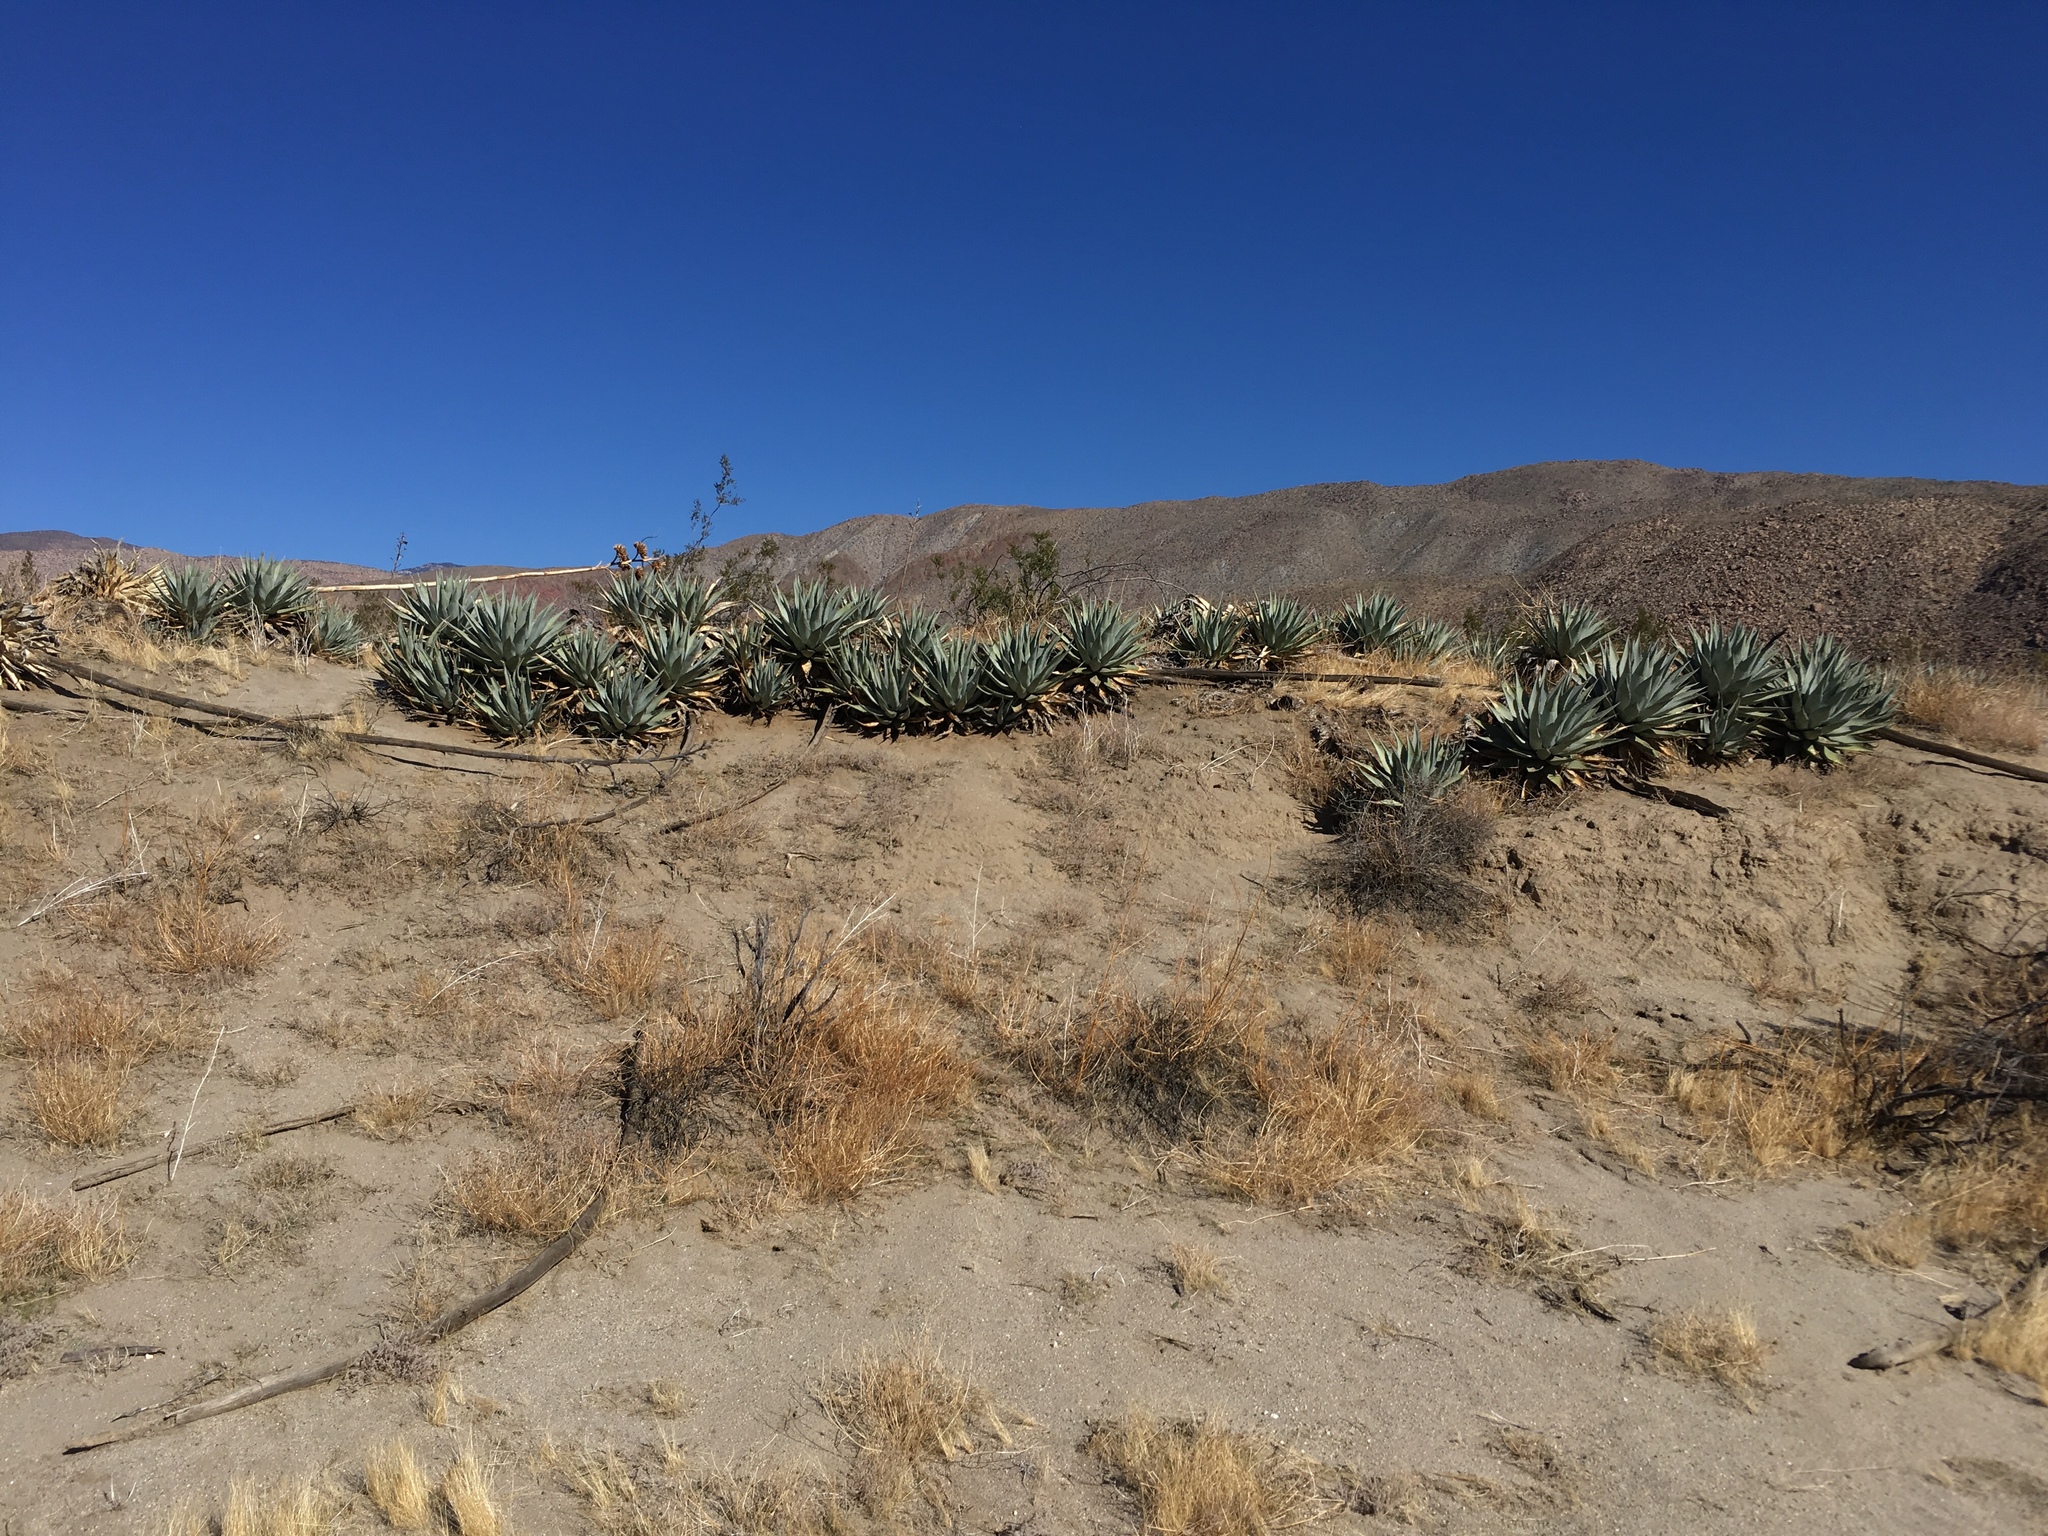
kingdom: Plantae
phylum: Tracheophyta
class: Liliopsida
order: Asparagales
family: Asparagaceae
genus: Agave
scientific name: Agave deserti
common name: Desert agave
